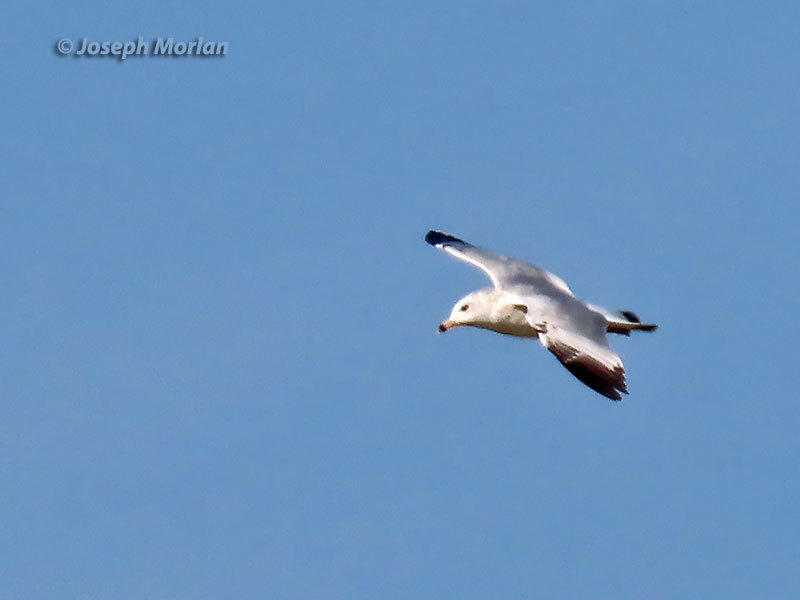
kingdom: Animalia
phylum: Chordata
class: Aves
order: Charadriiformes
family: Laridae
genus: Larus
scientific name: Larus delawarensis
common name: Ring-billed gull
